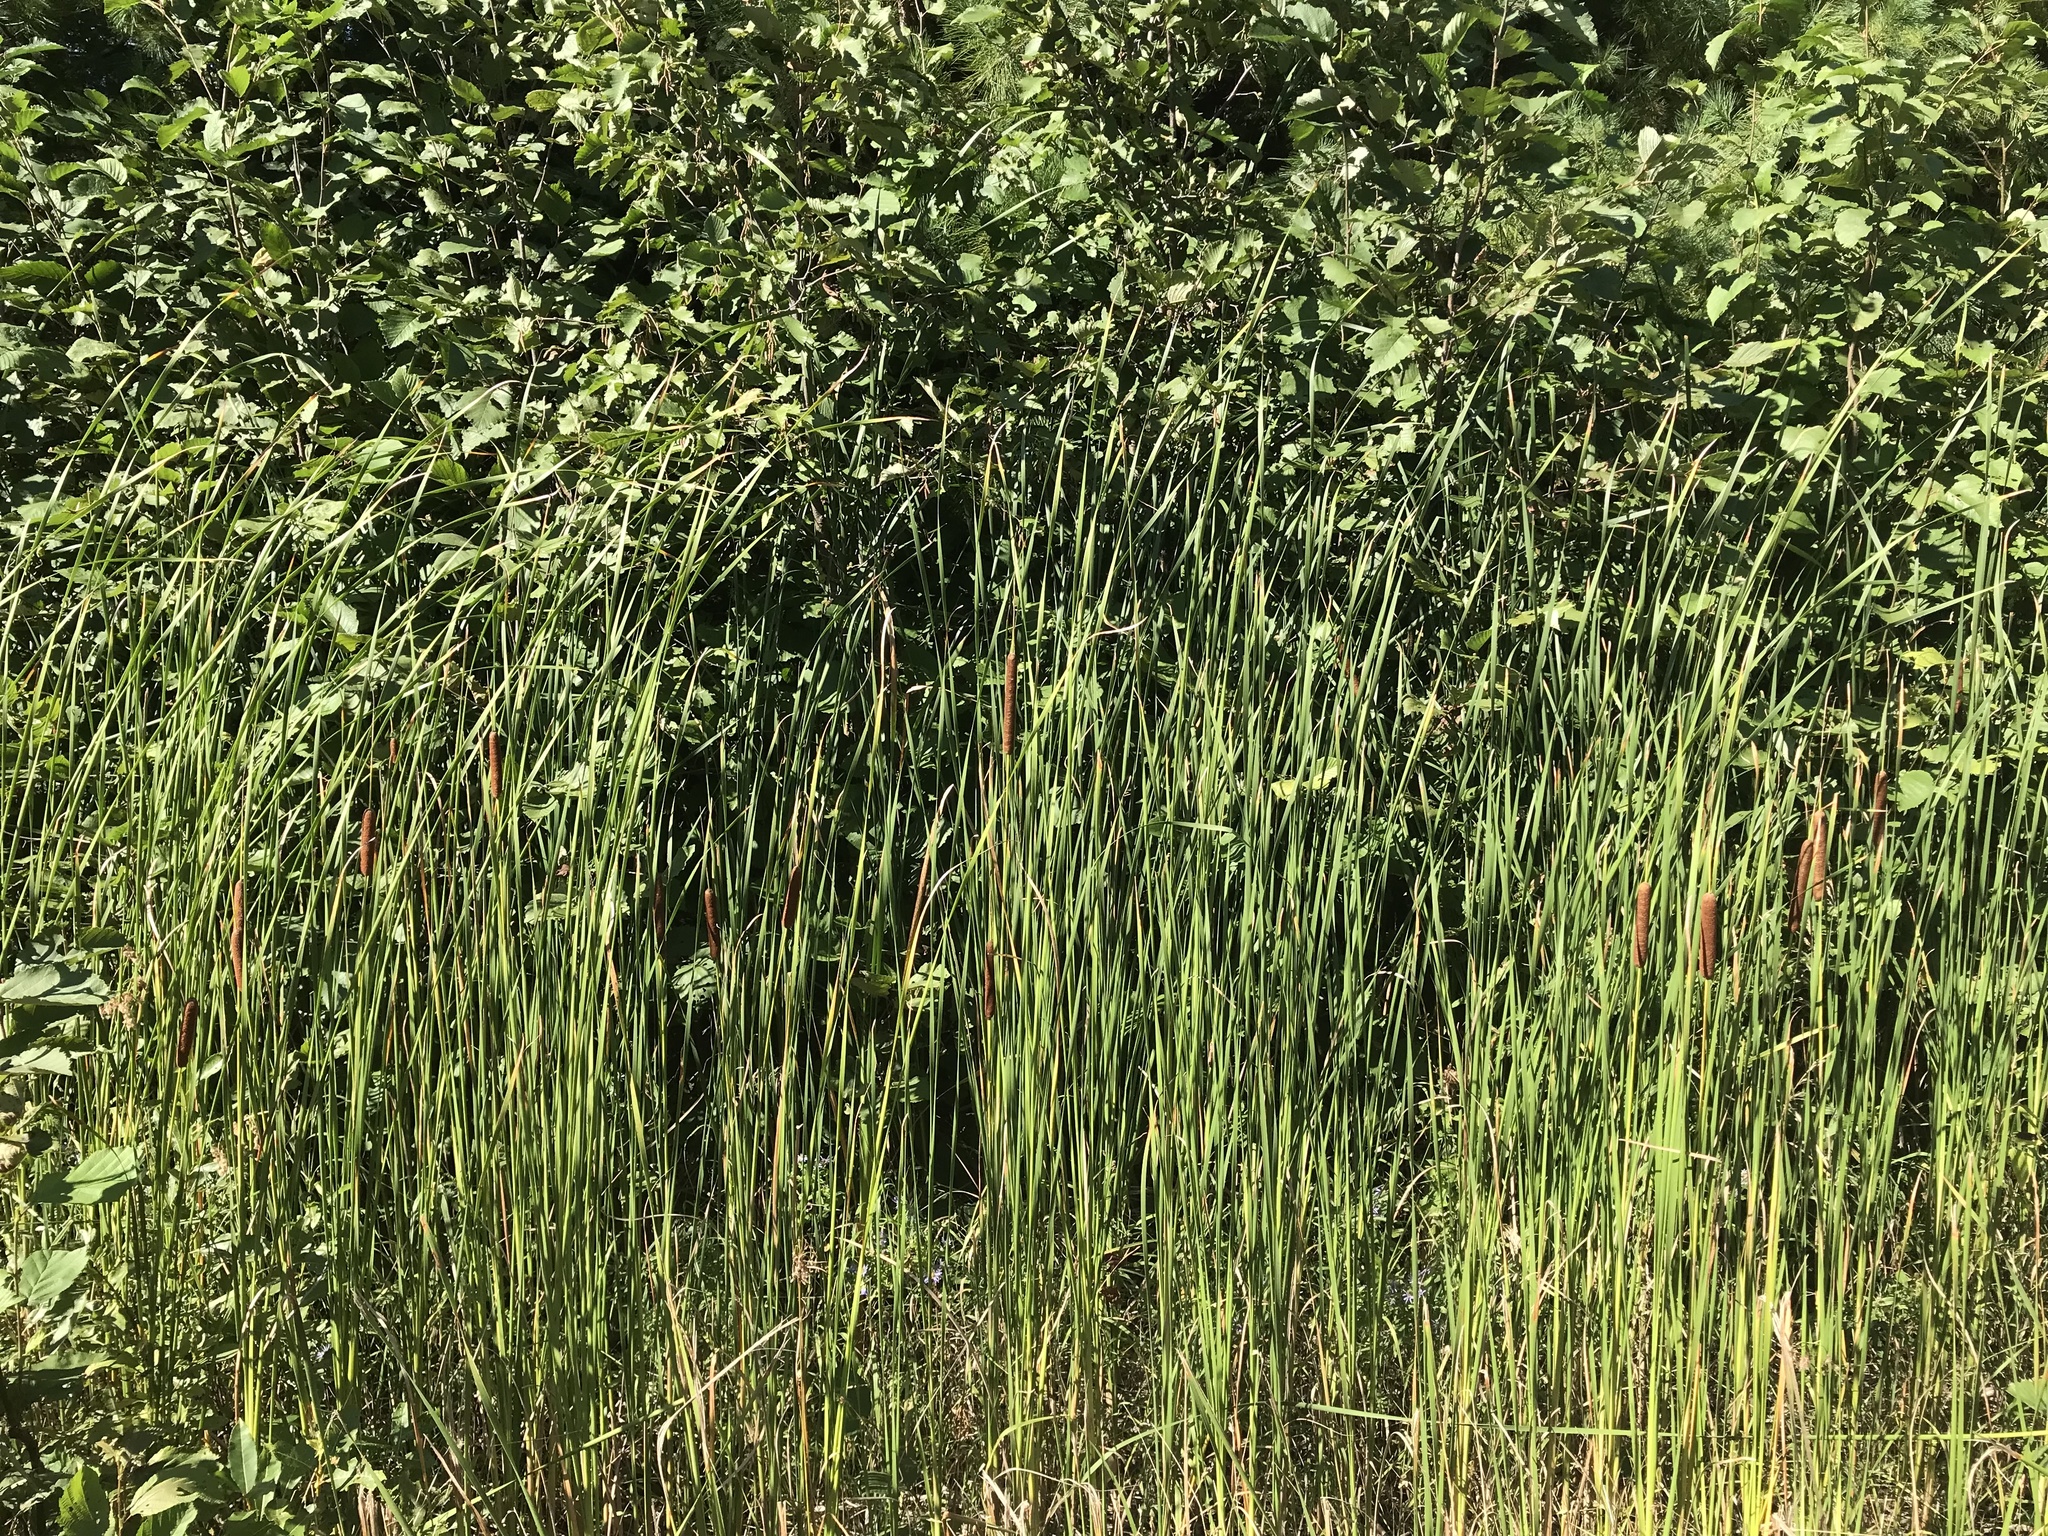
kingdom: Plantae
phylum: Tracheophyta
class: Liliopsida
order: Poales
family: Typhaceae
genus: Typha
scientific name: Typha angustifolia
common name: Lesser bulrush
